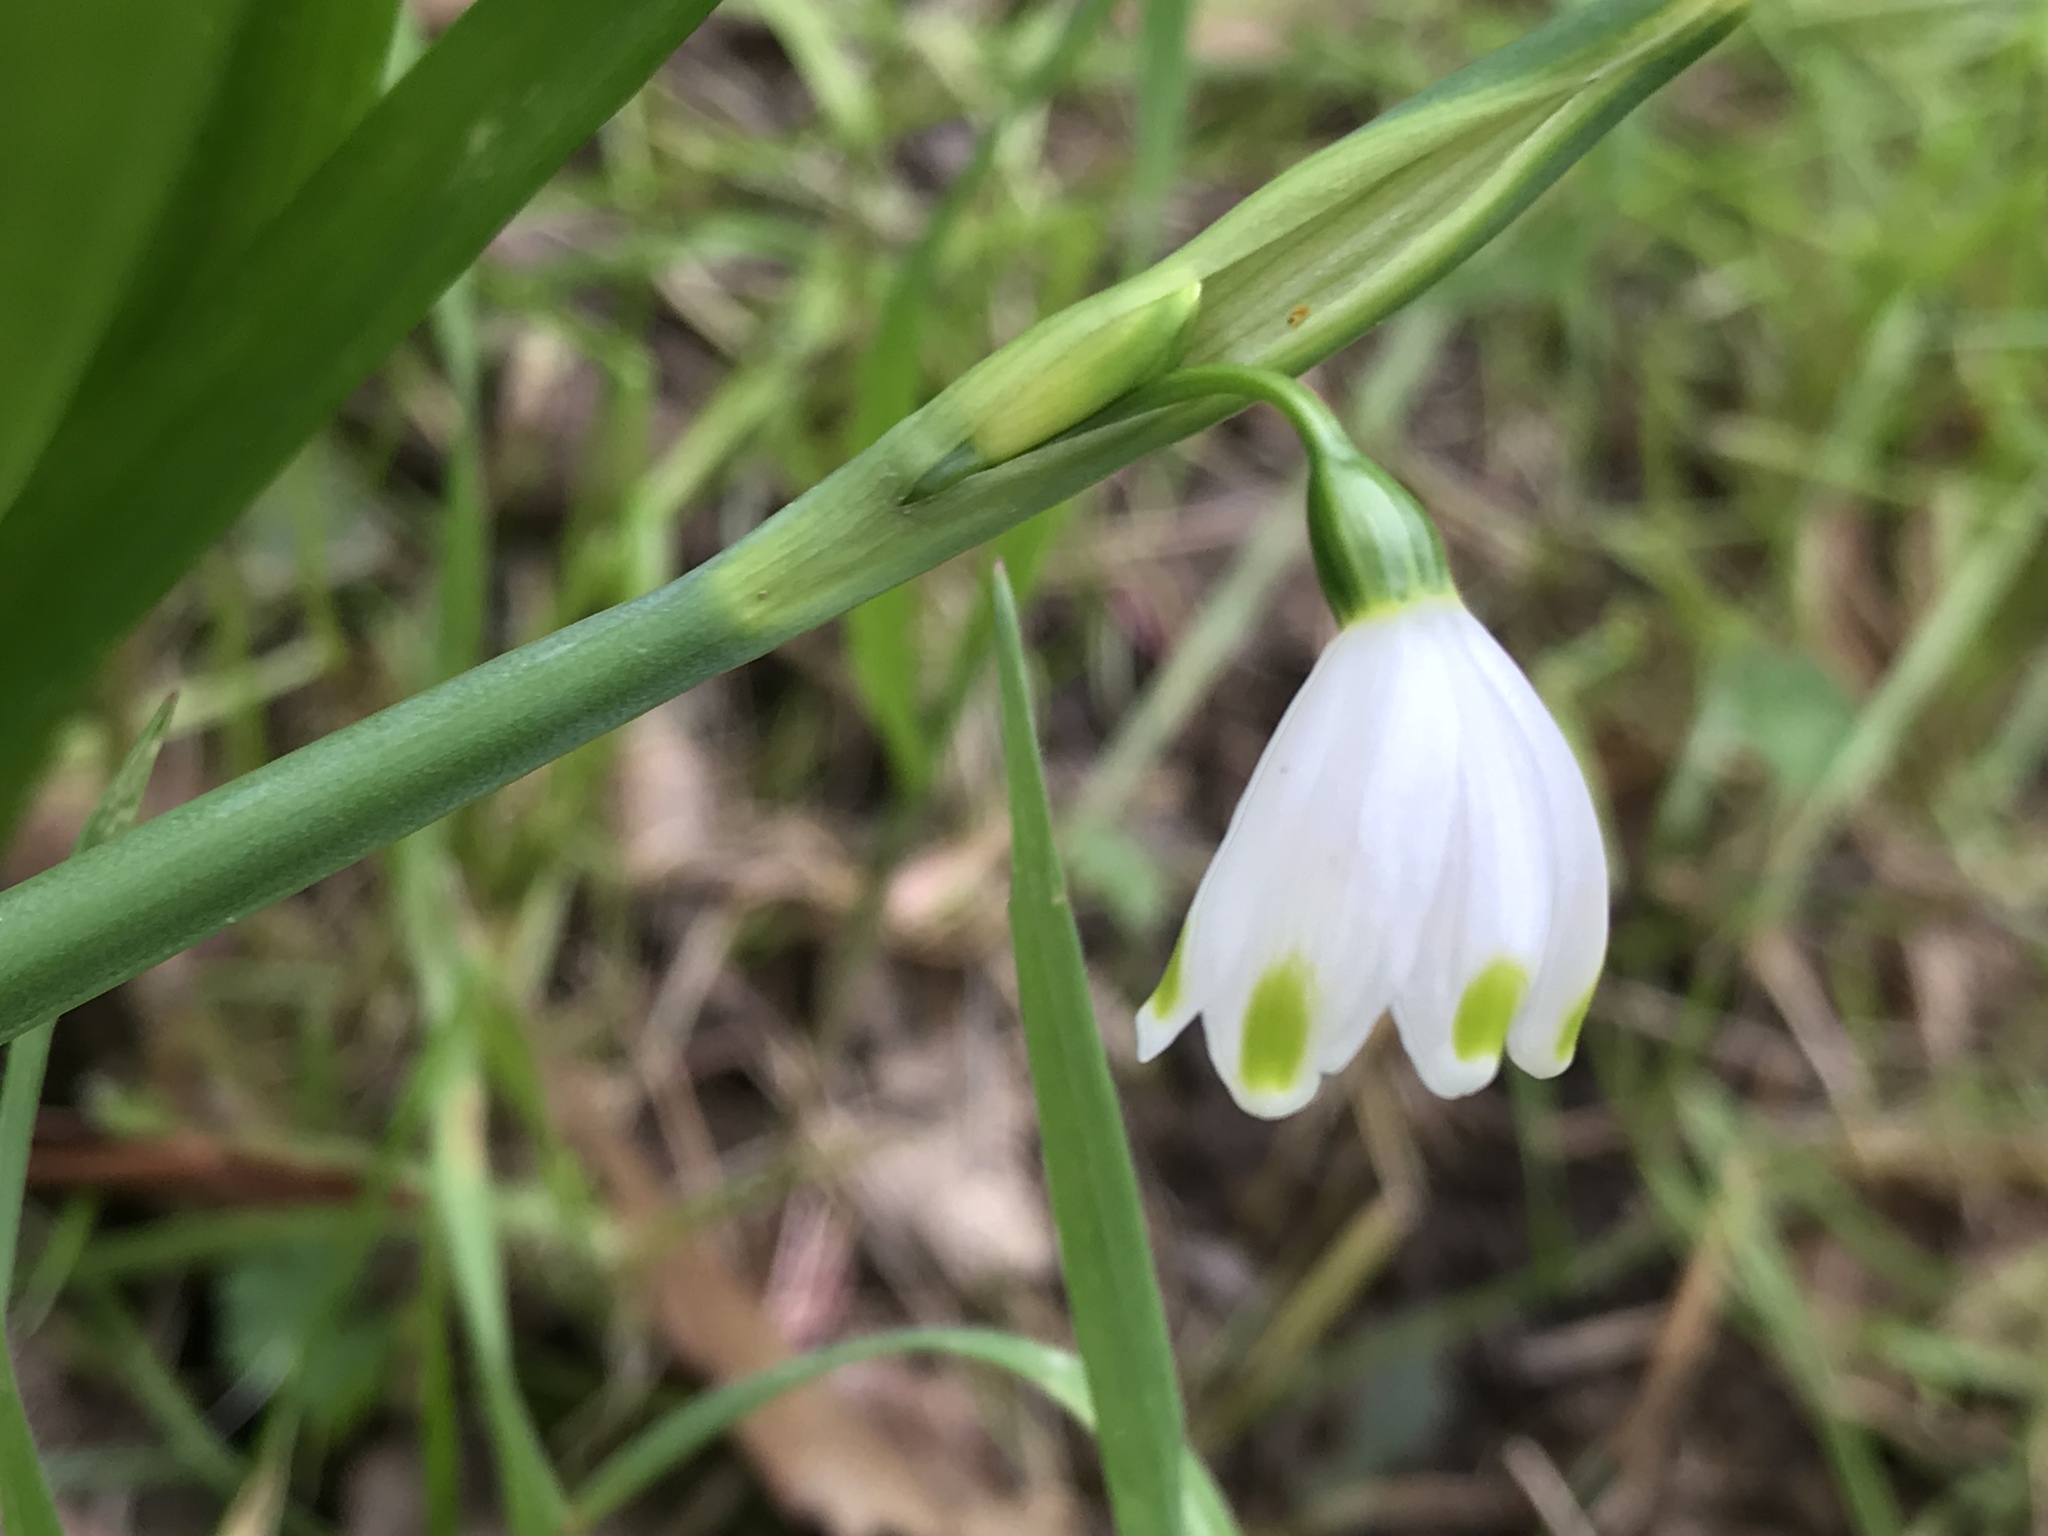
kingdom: Plantae
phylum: Tracheophyta
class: Liliopsida
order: Asparagales
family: Amaryllidaceae
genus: Leucojum
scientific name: Leucojum aestivum
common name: Summer snowflake
